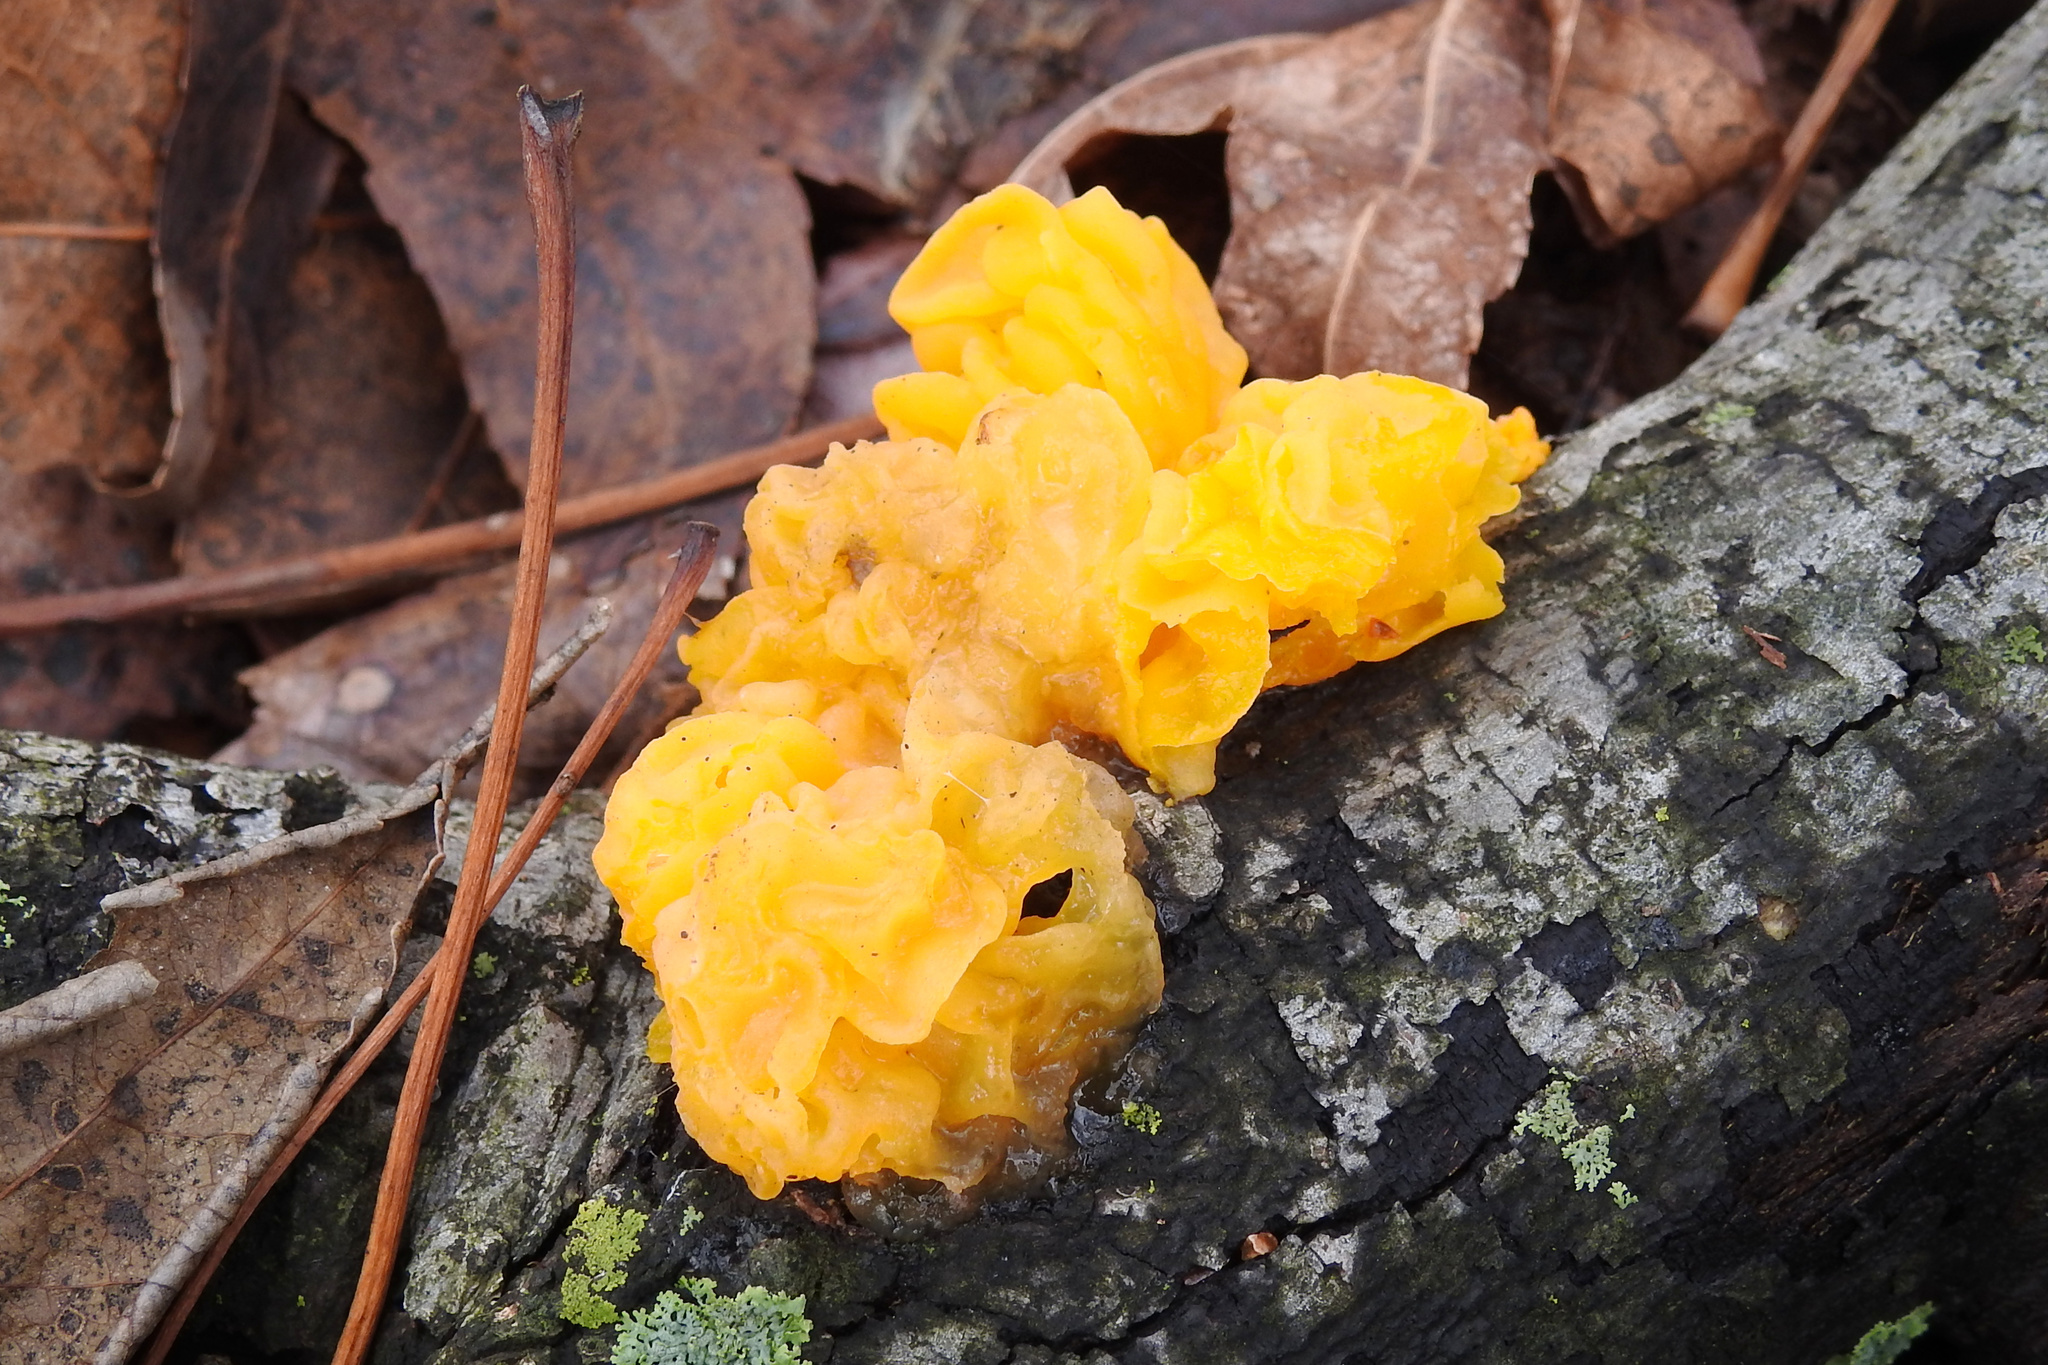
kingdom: Fungi
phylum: Basidiomycota
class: Tremellomycetes
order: Tremellales
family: Tremellaceae
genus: Tremella
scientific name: Tremella mesenterica
